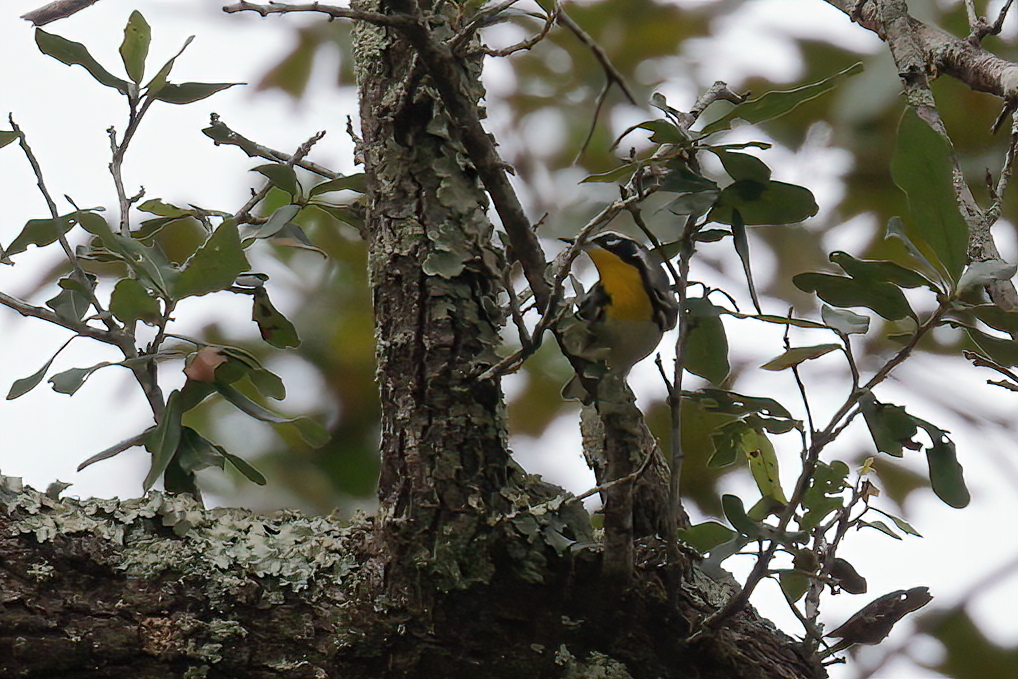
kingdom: Animalia
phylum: Chordata
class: Aves
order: Passeriformes
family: Parulidae
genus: Setophaga
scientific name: Setophaga dominica
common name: Yellow-throated warbler
